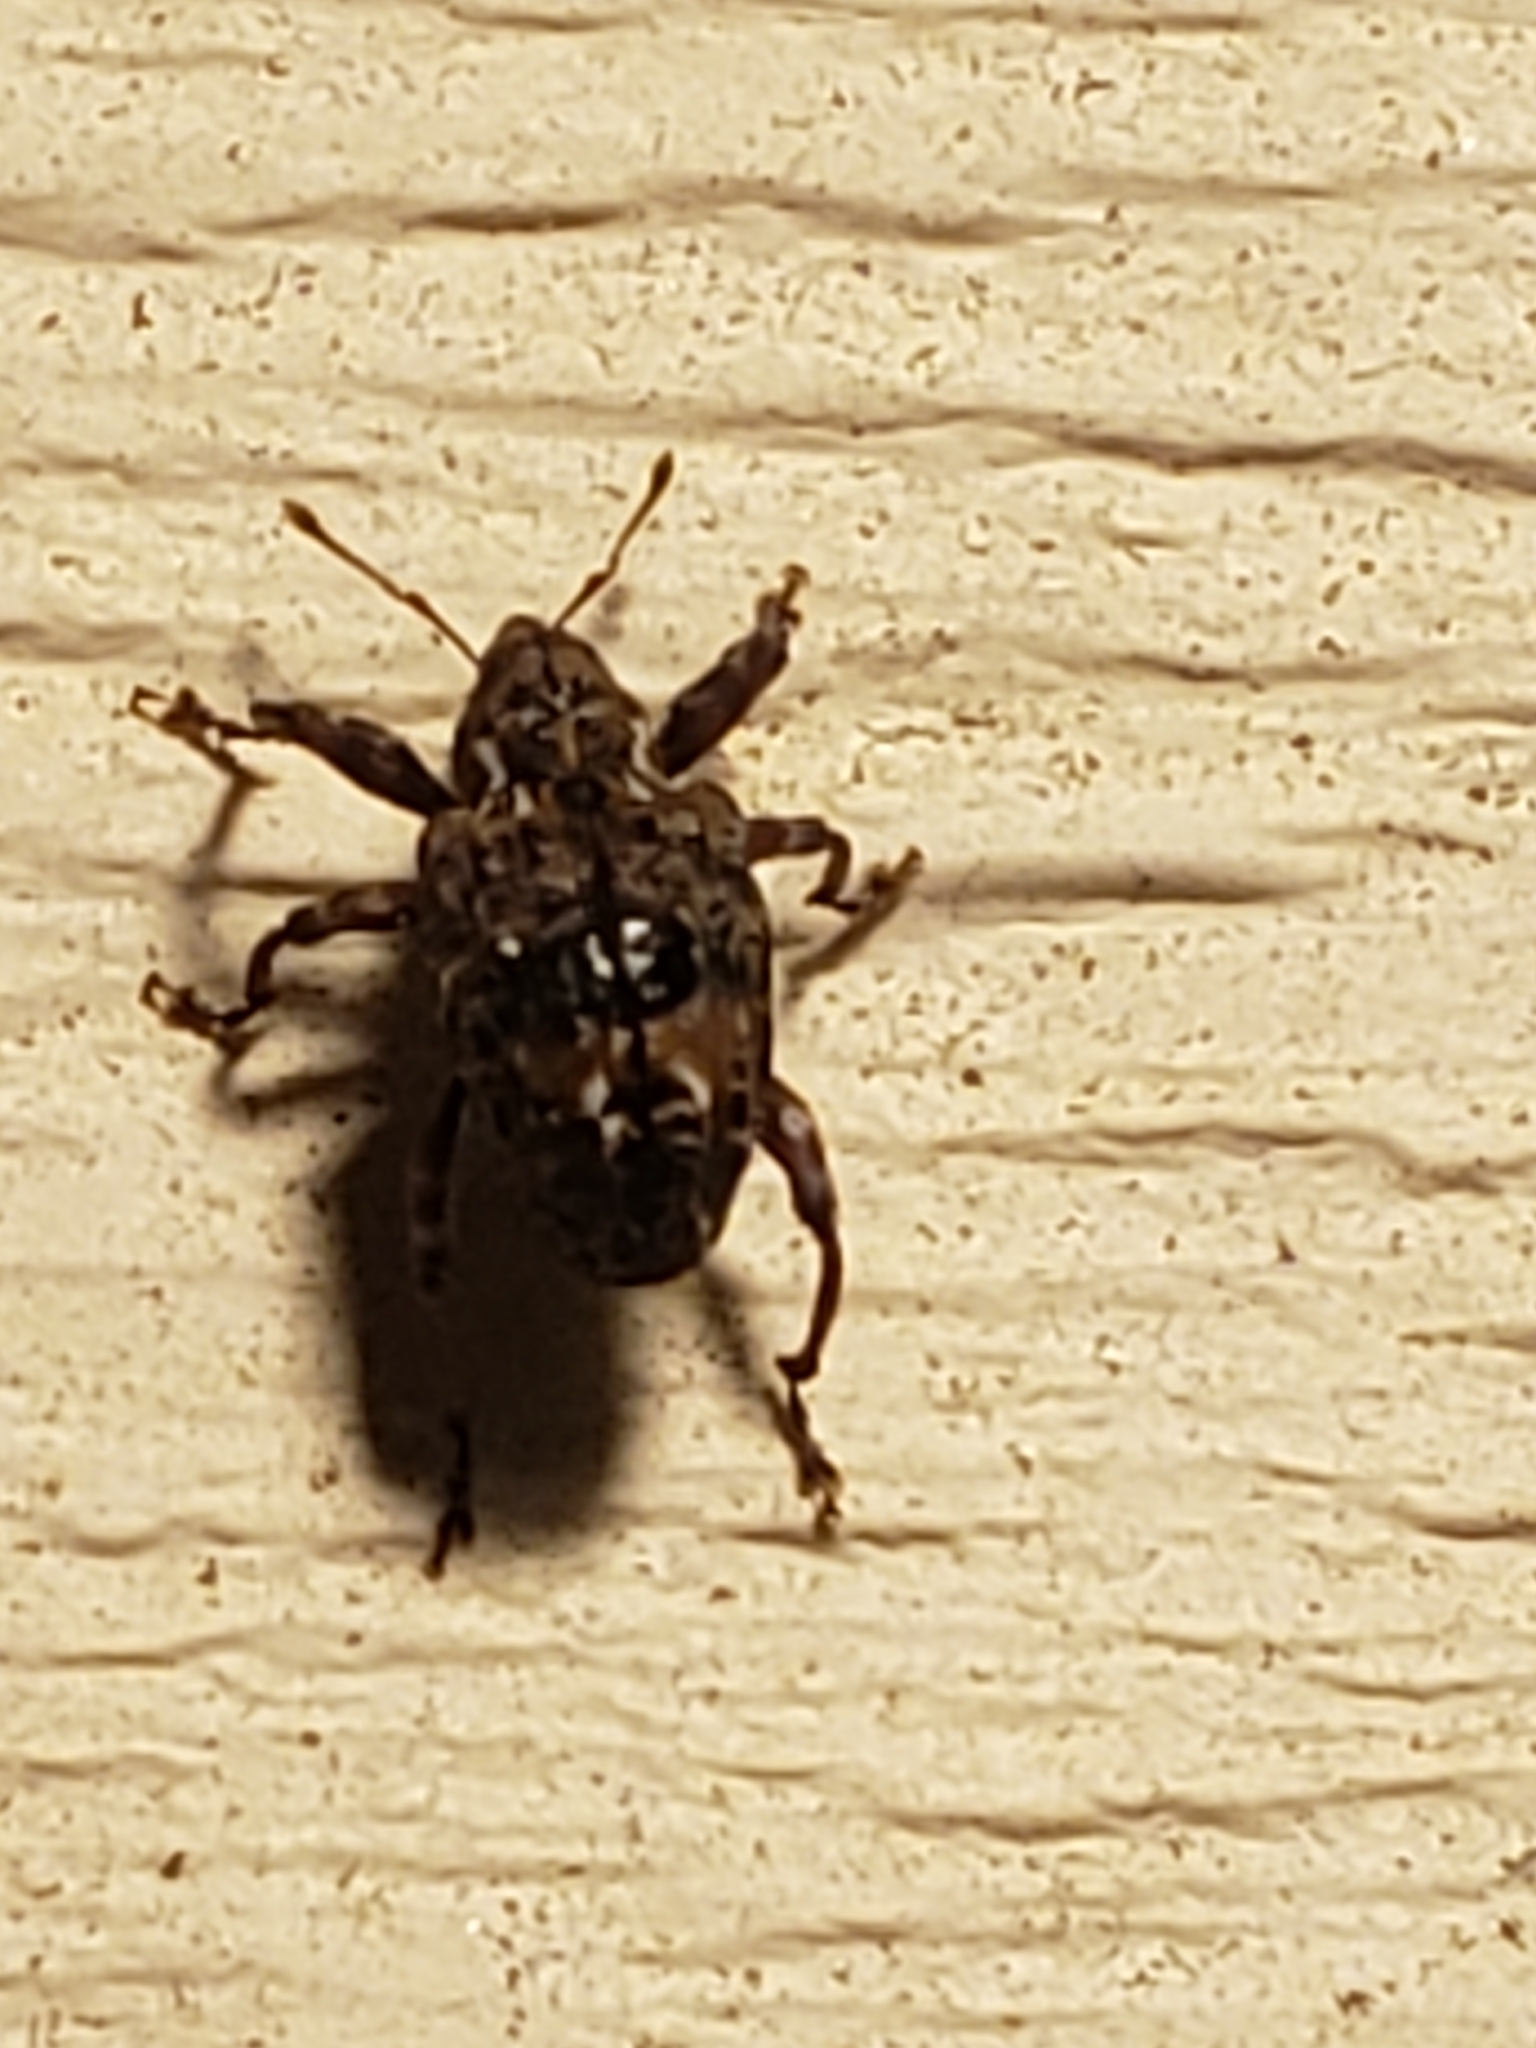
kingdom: Animalia
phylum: Arthropoda
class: Insecta
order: Coleoptera
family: Curculionidae
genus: Conotrachelus
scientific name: Conotrachelus nenuphar
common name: Plum curculio
